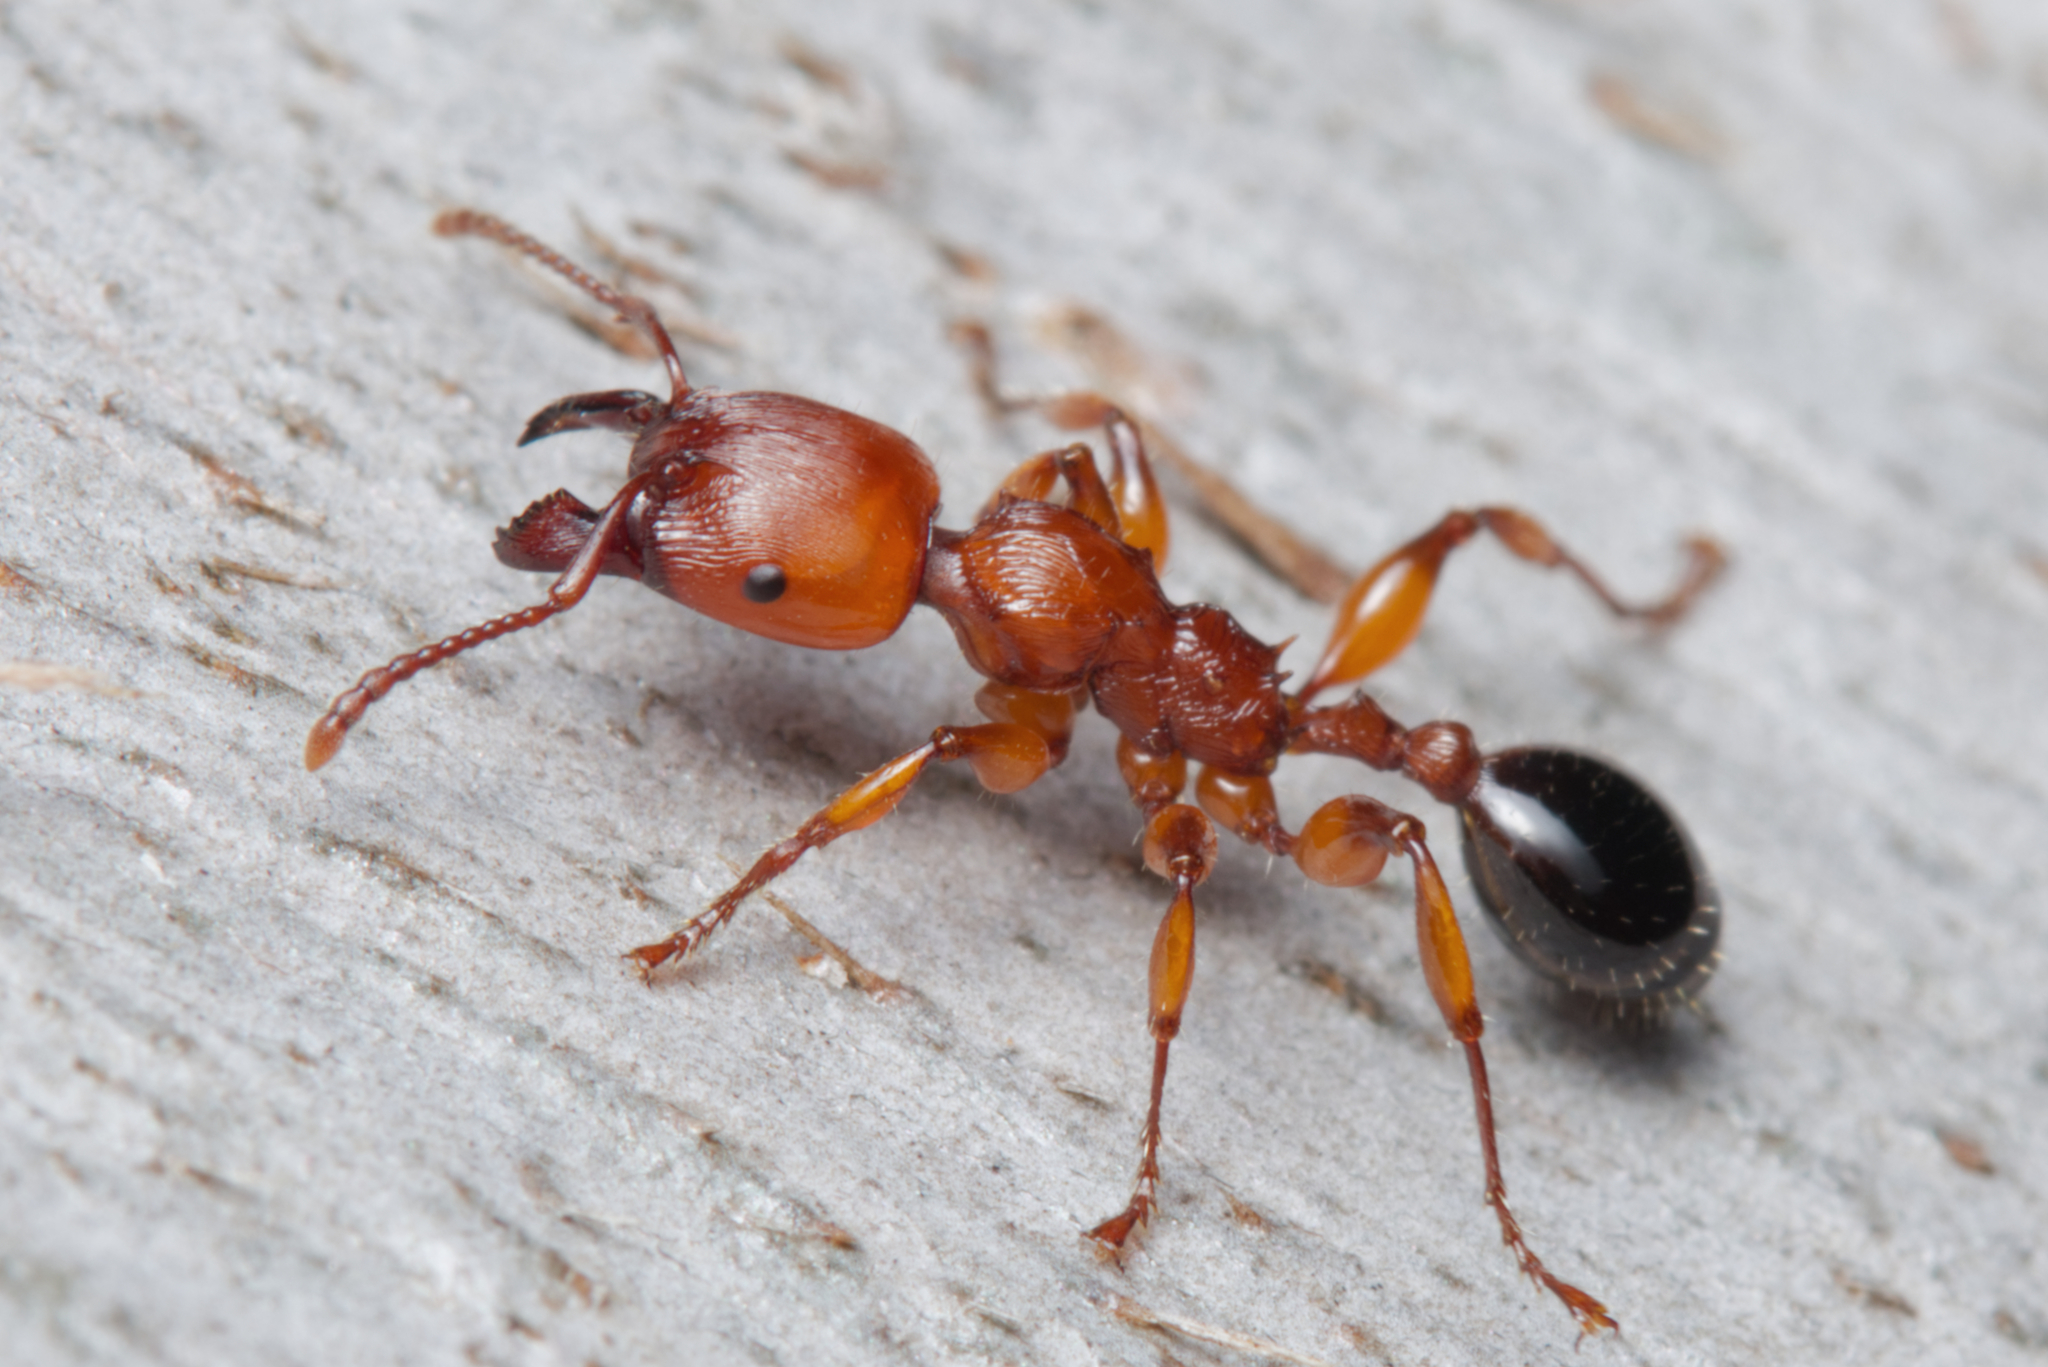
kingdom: Animalia
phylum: Arthropoda
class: Insecta
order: Hymenoptera
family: Formicidae
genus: Podomyrma
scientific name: Podomyrma gratiosa
